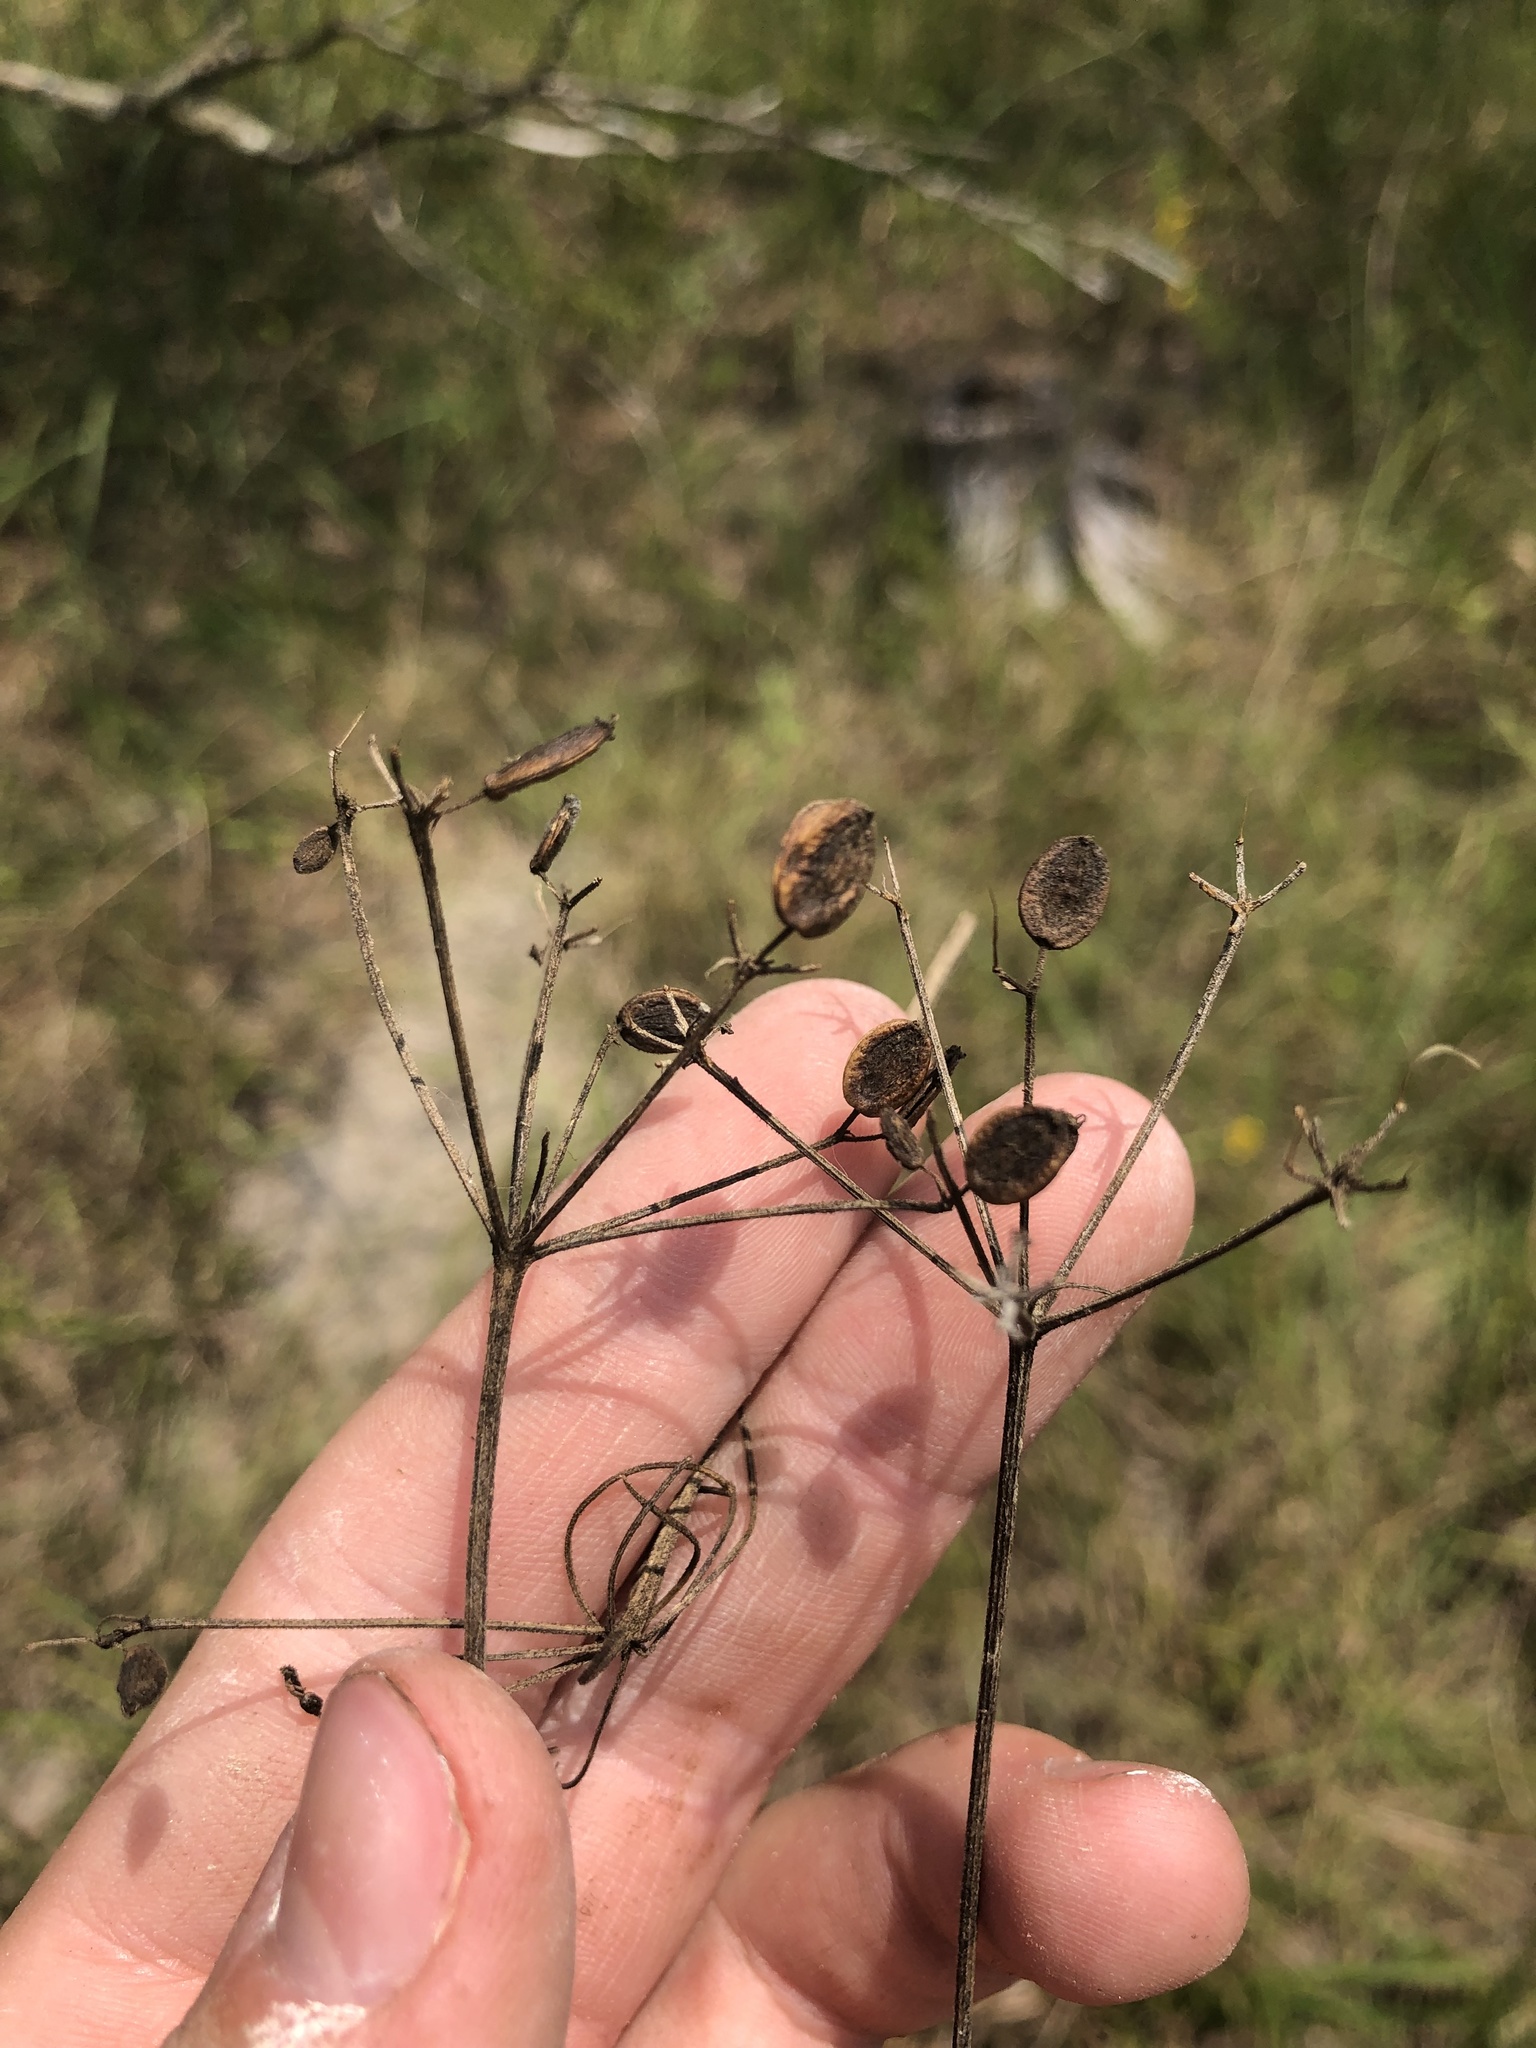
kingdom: Plantae
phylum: Tracheophyta
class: Magnoliopsida
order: Apiales
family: Apiaceae
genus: Polytaenia
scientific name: Polytaenia nuttallii
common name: Prairie-parsley
